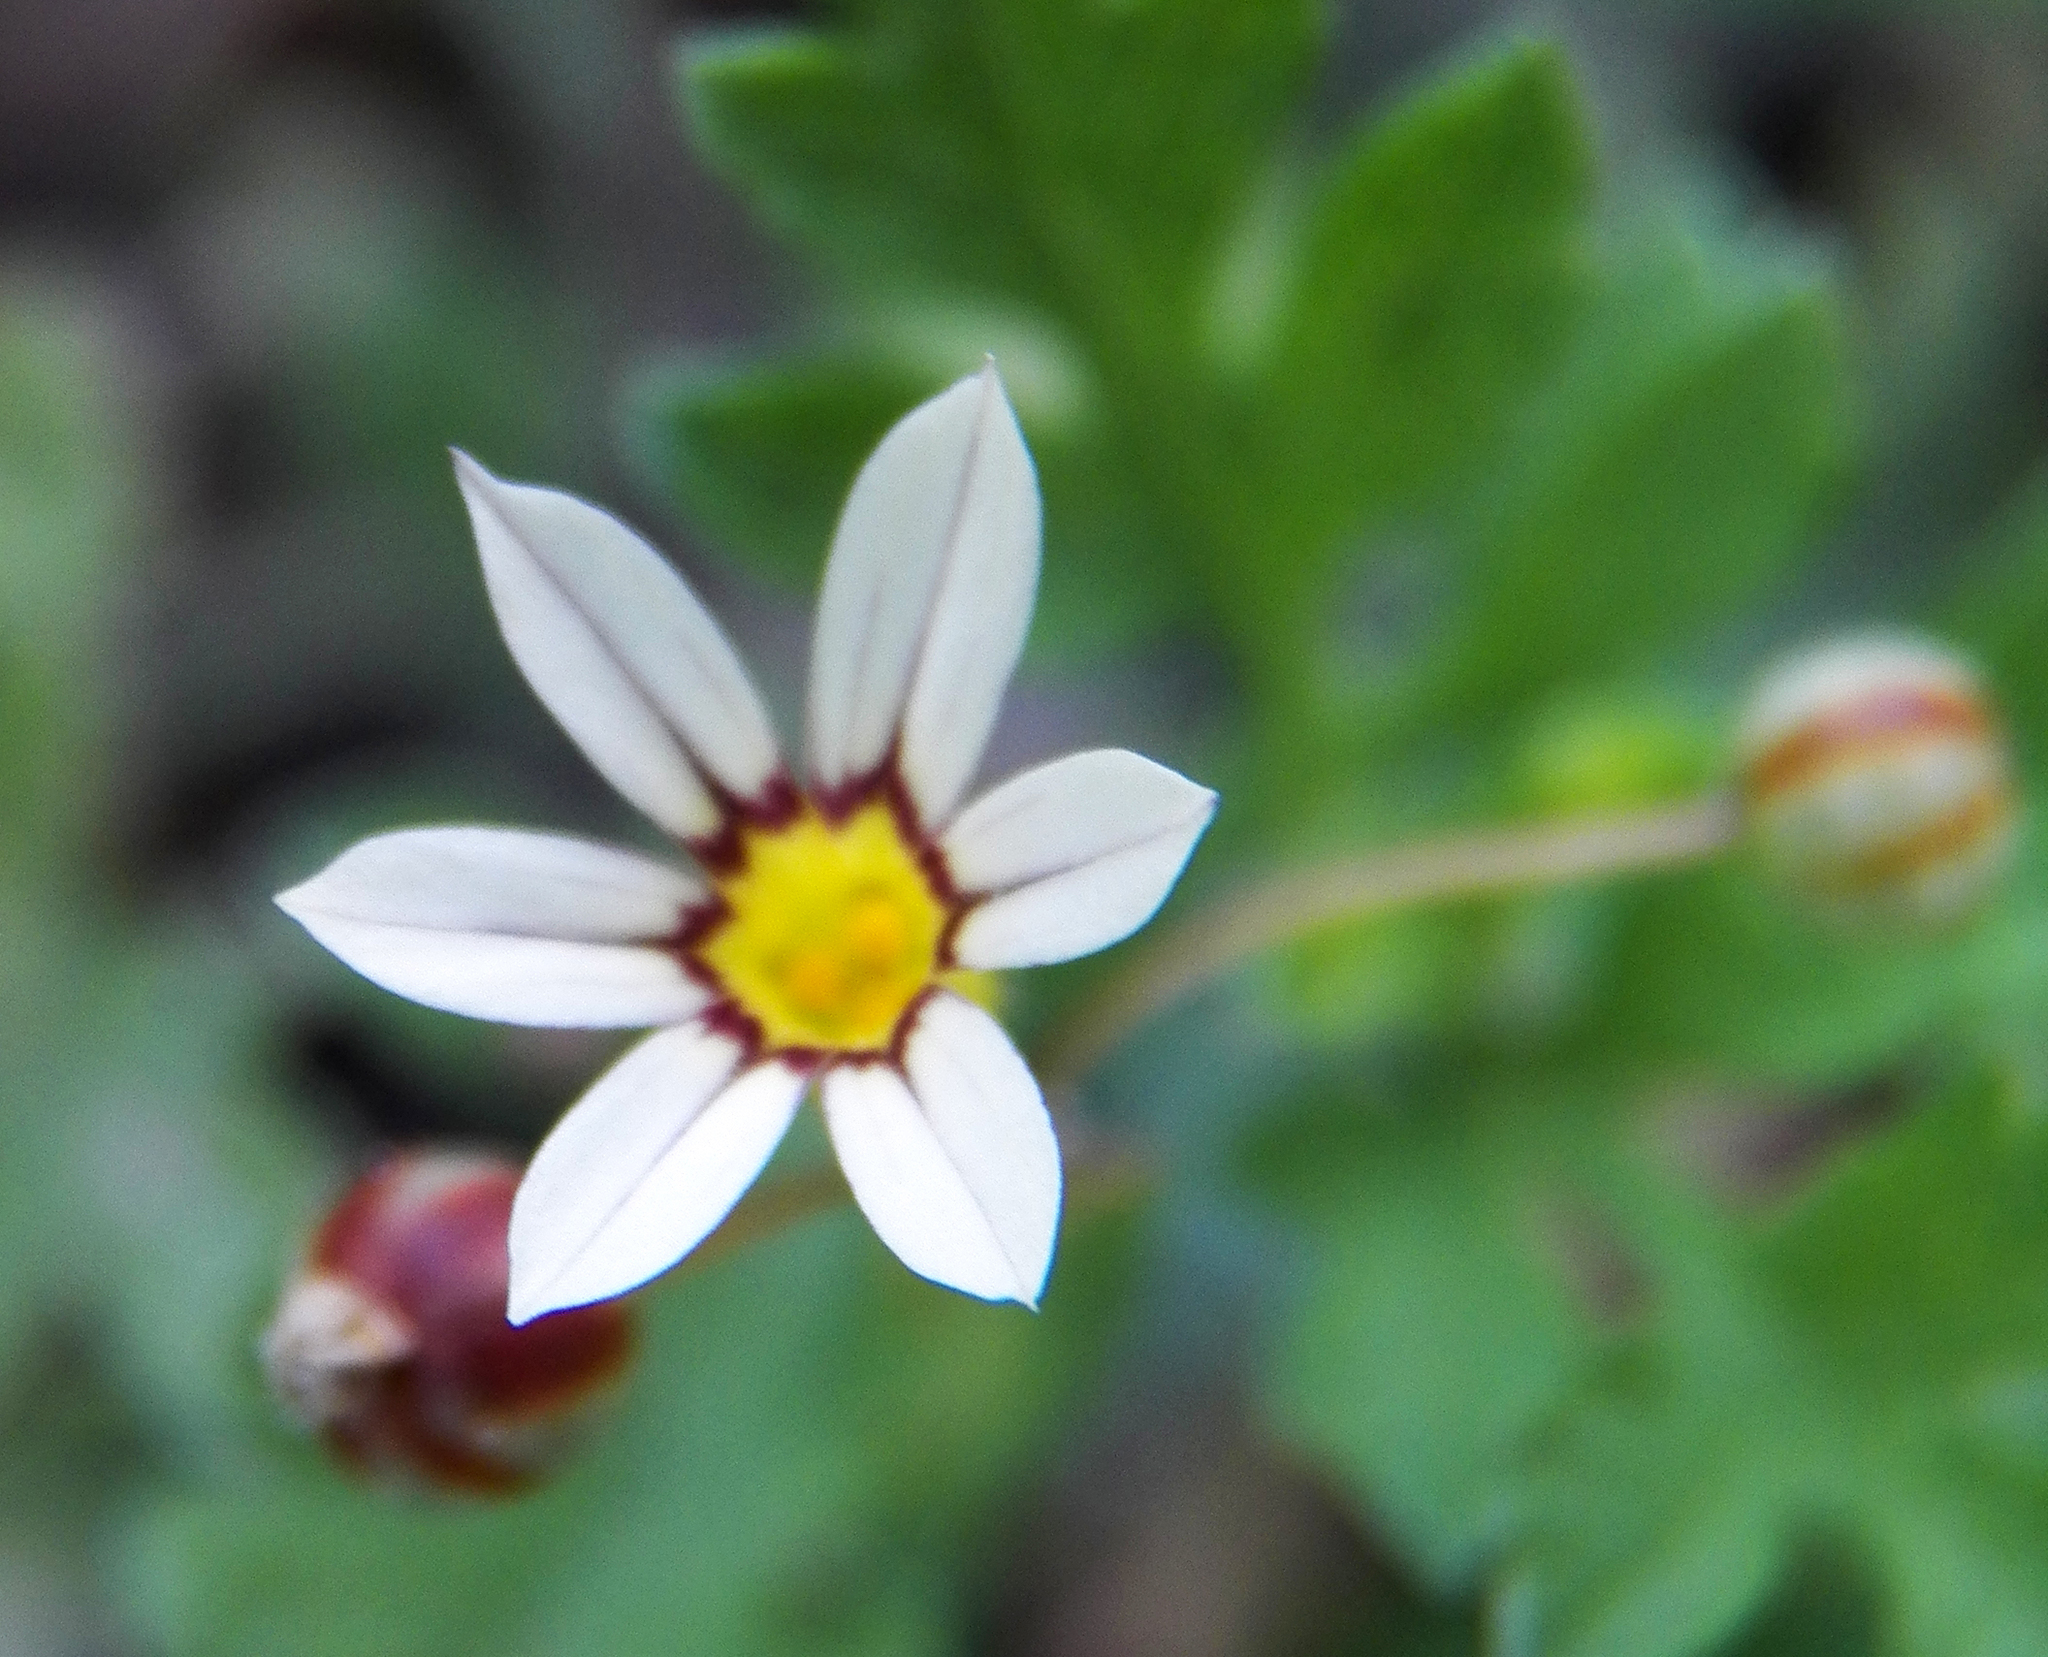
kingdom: Plantae
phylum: Tracheophyta
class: Liliopsida
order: Asparagales
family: Iridaceae
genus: Sisyrinchium
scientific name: Sisyrinchium micranthum
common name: Bermuda pigroot
